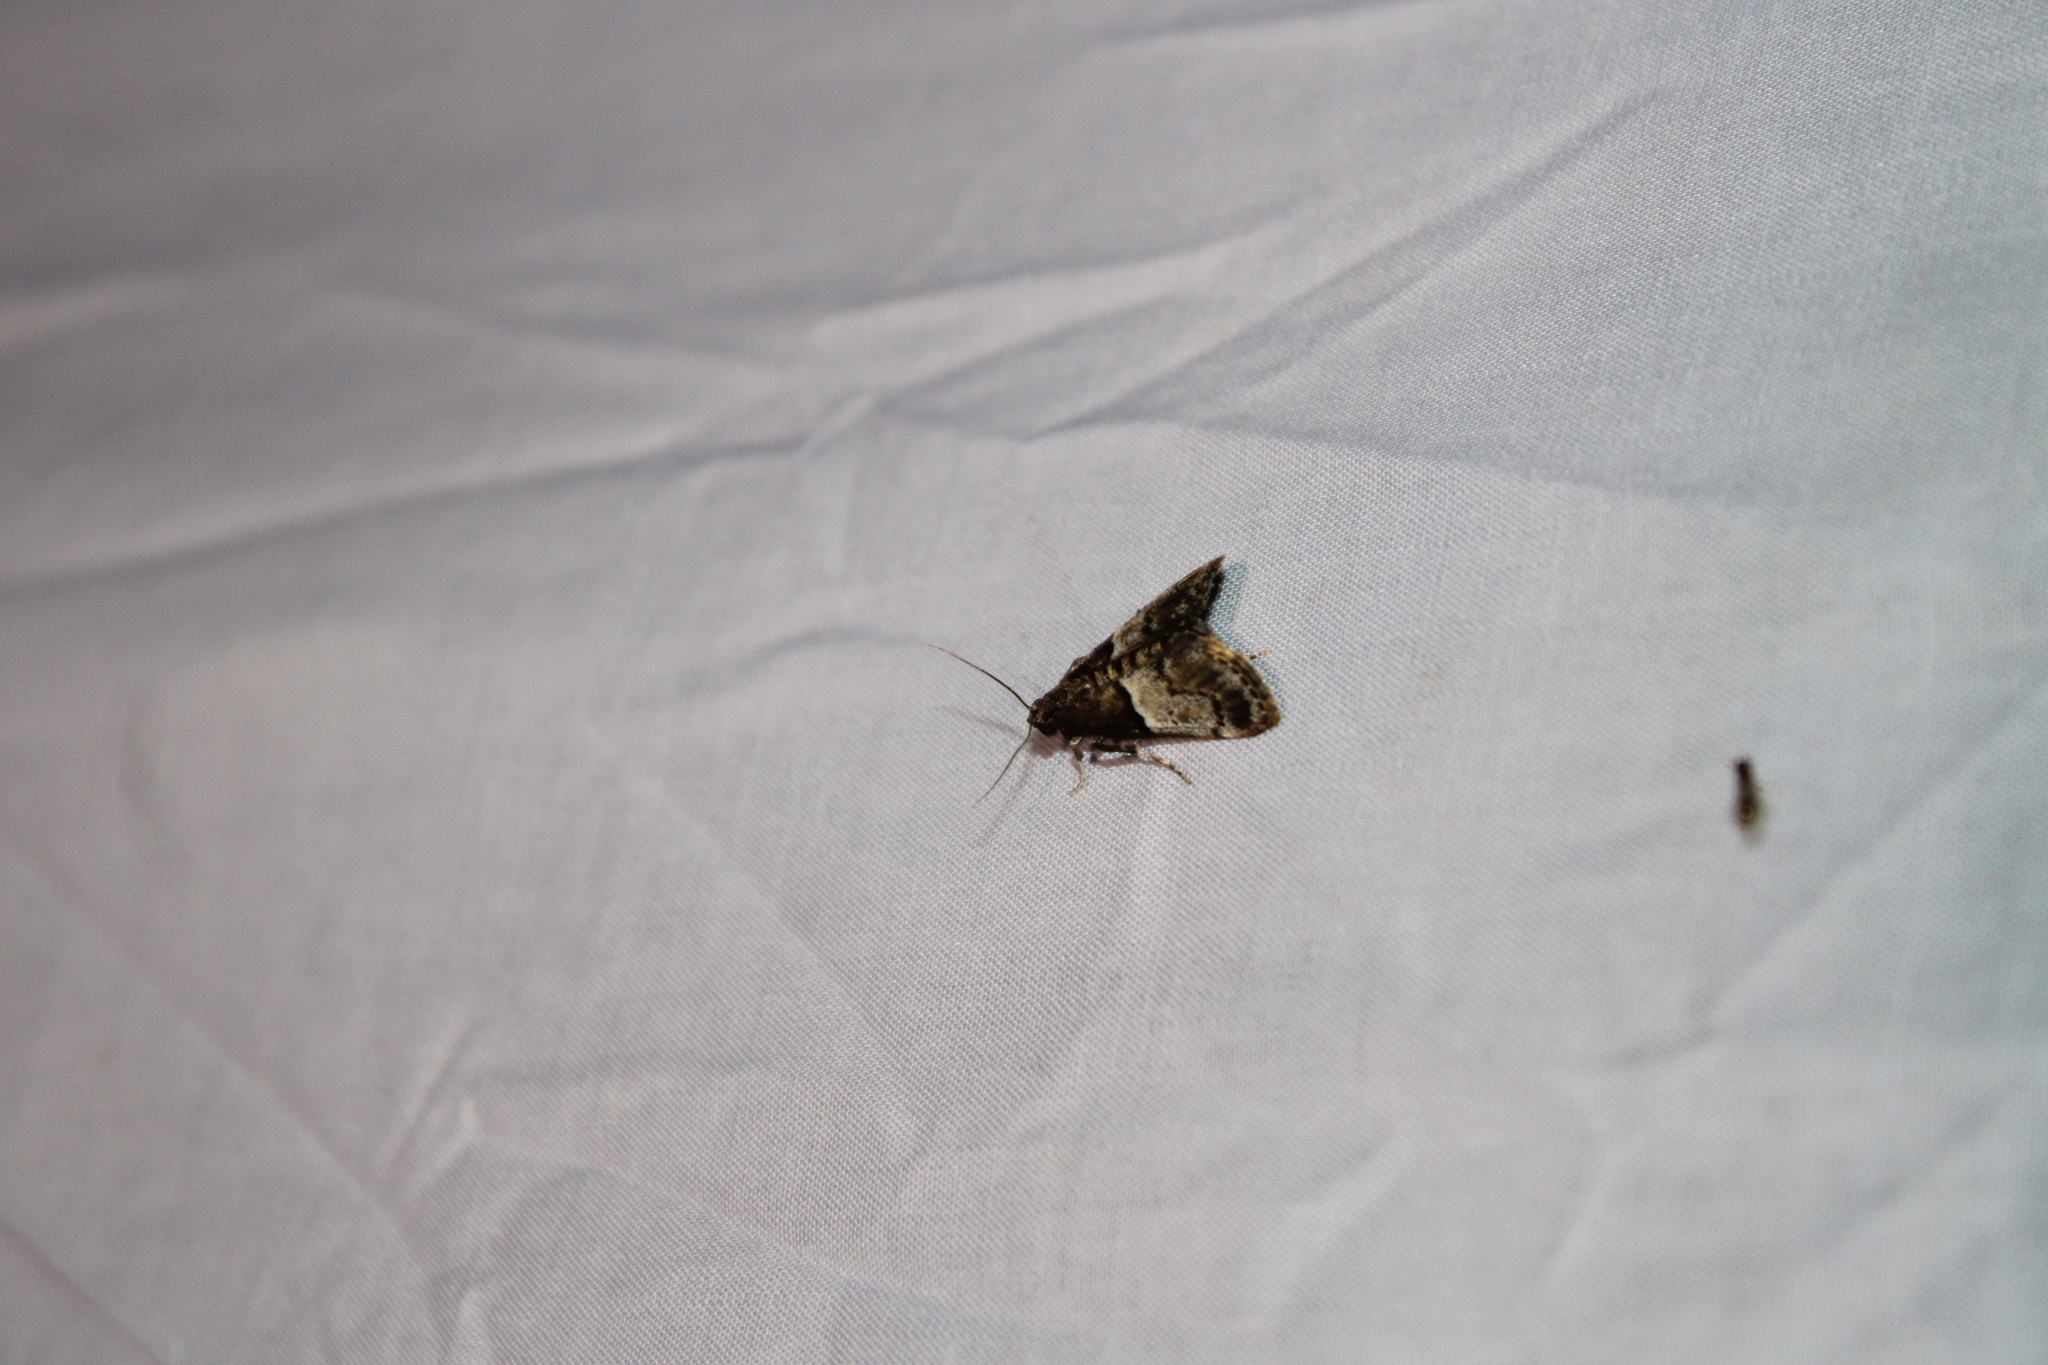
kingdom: Animalia
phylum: Arthropoda
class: Insecta
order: Lepidoptera
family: Pyralidae
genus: Macalla
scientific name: Macalla zelleri
